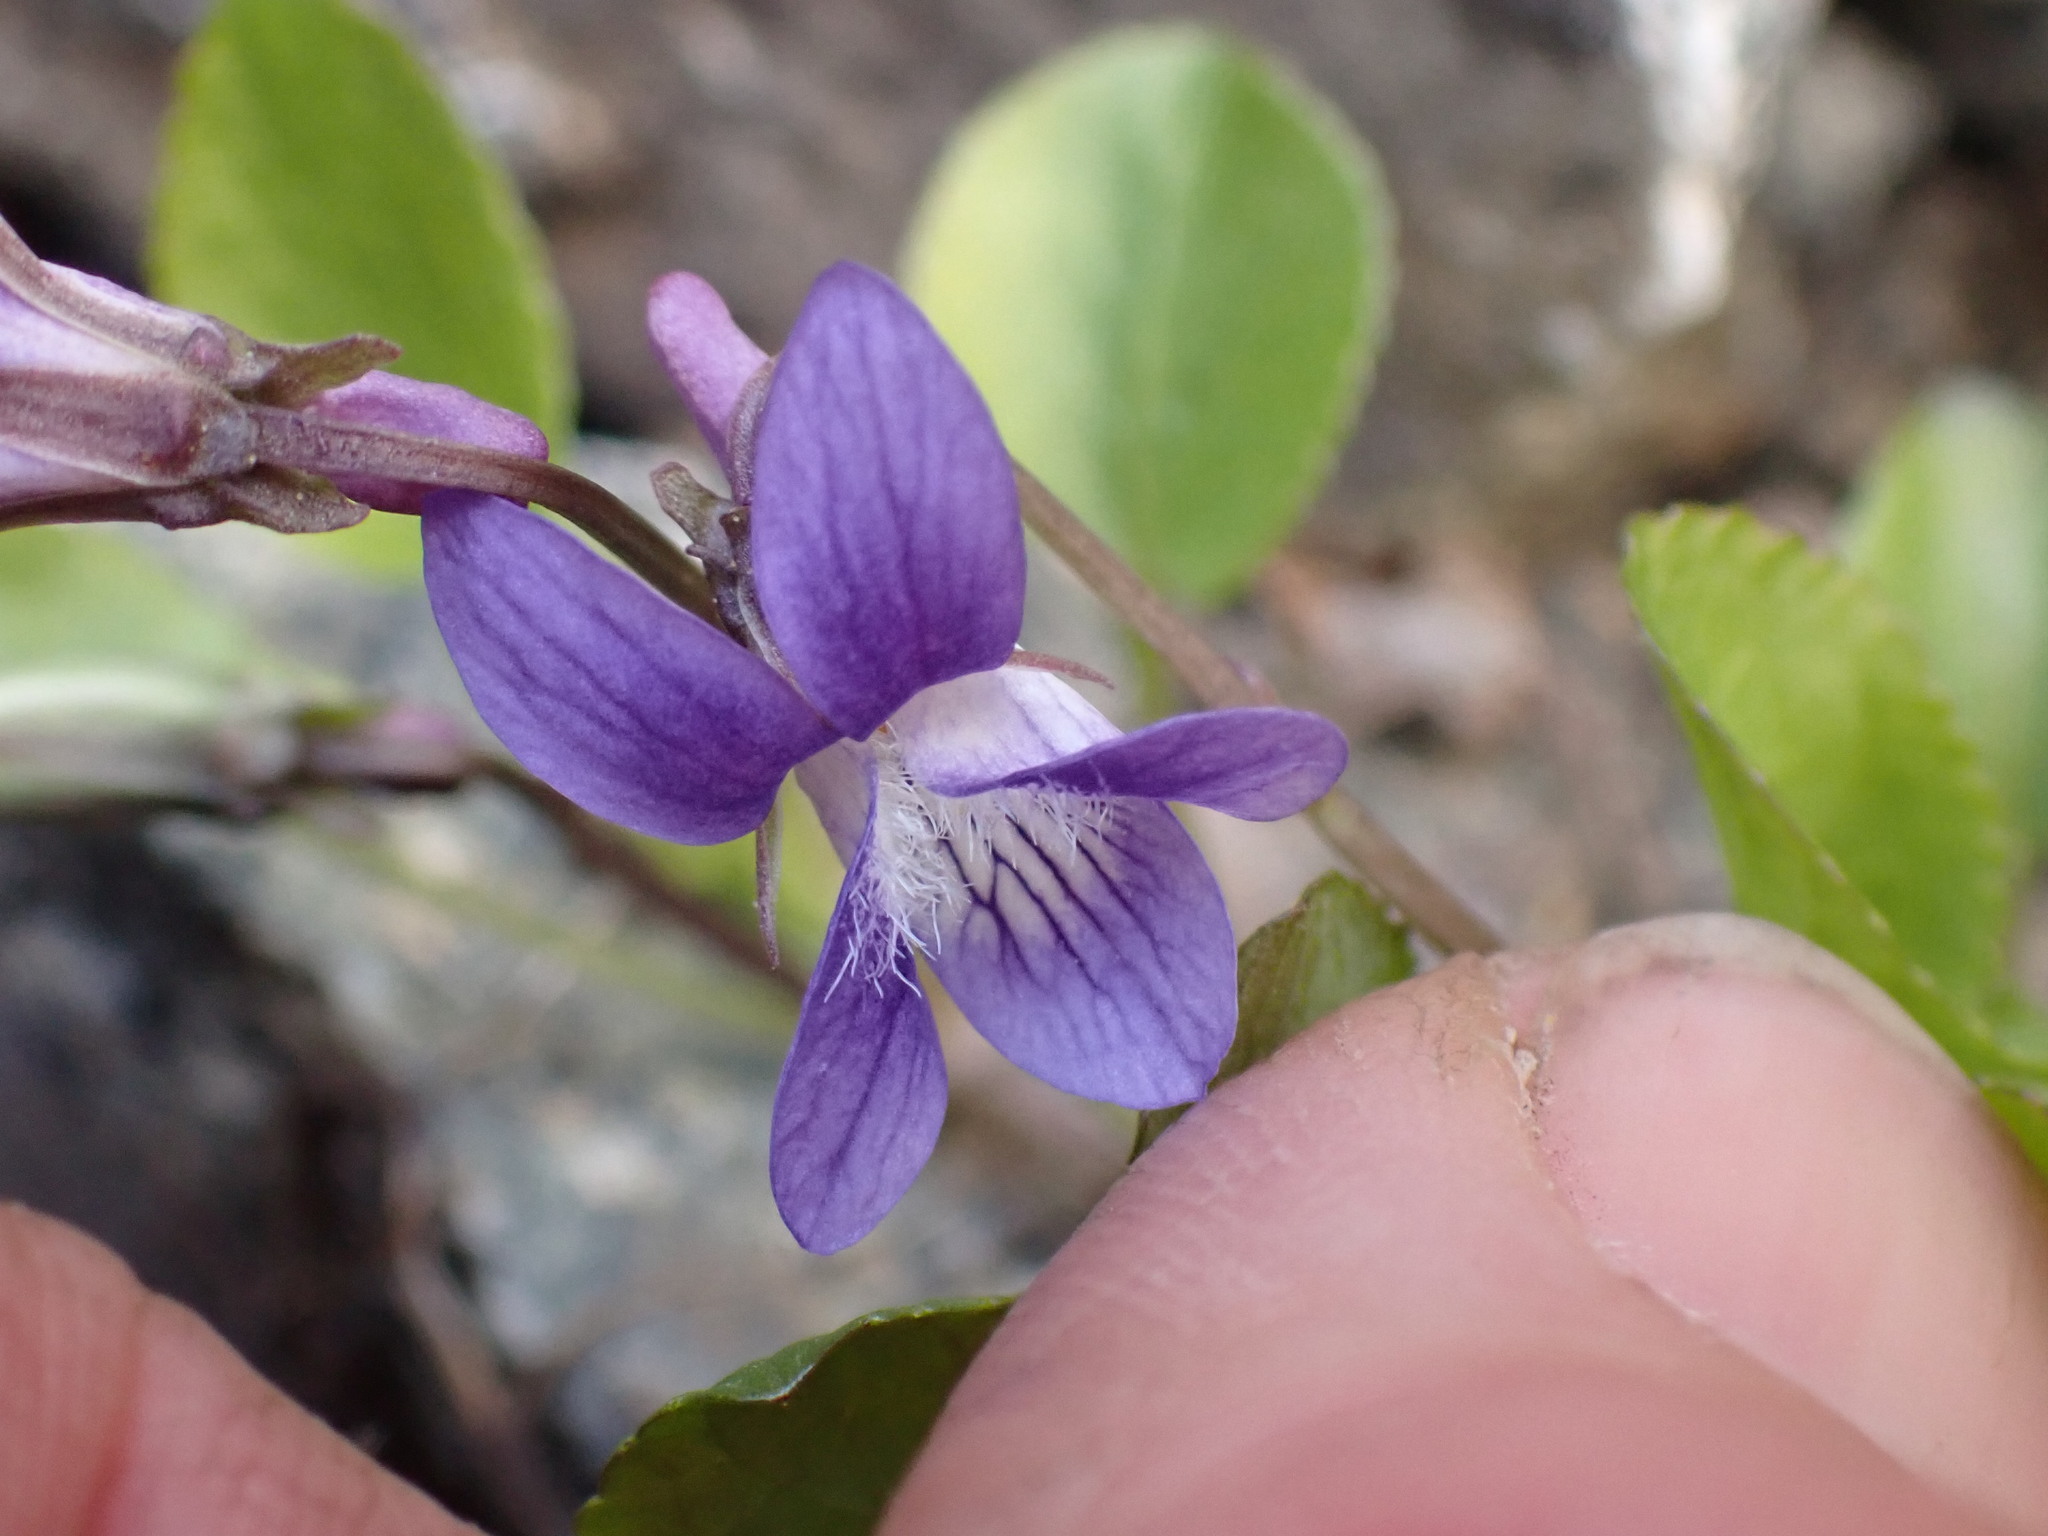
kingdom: Plantae
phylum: Tracheophyta
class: Magnoliopsida
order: Malpighiales
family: Violaceae
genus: Viola
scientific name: Viola adunca
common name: Sand violet
